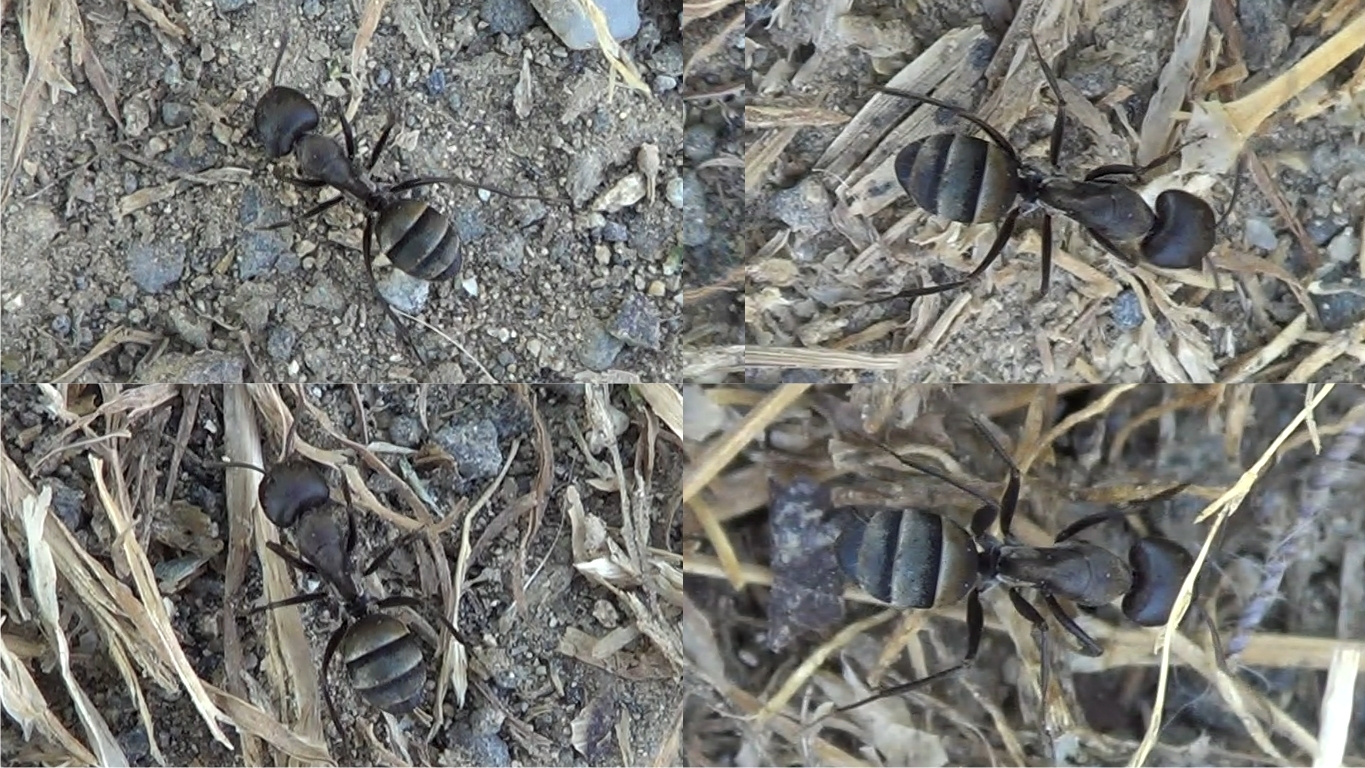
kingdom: Animalia
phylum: Arthropoda
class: Insecta
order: Hymenoptera
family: Formicidae
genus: Camponotus
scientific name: Camponotus micans
